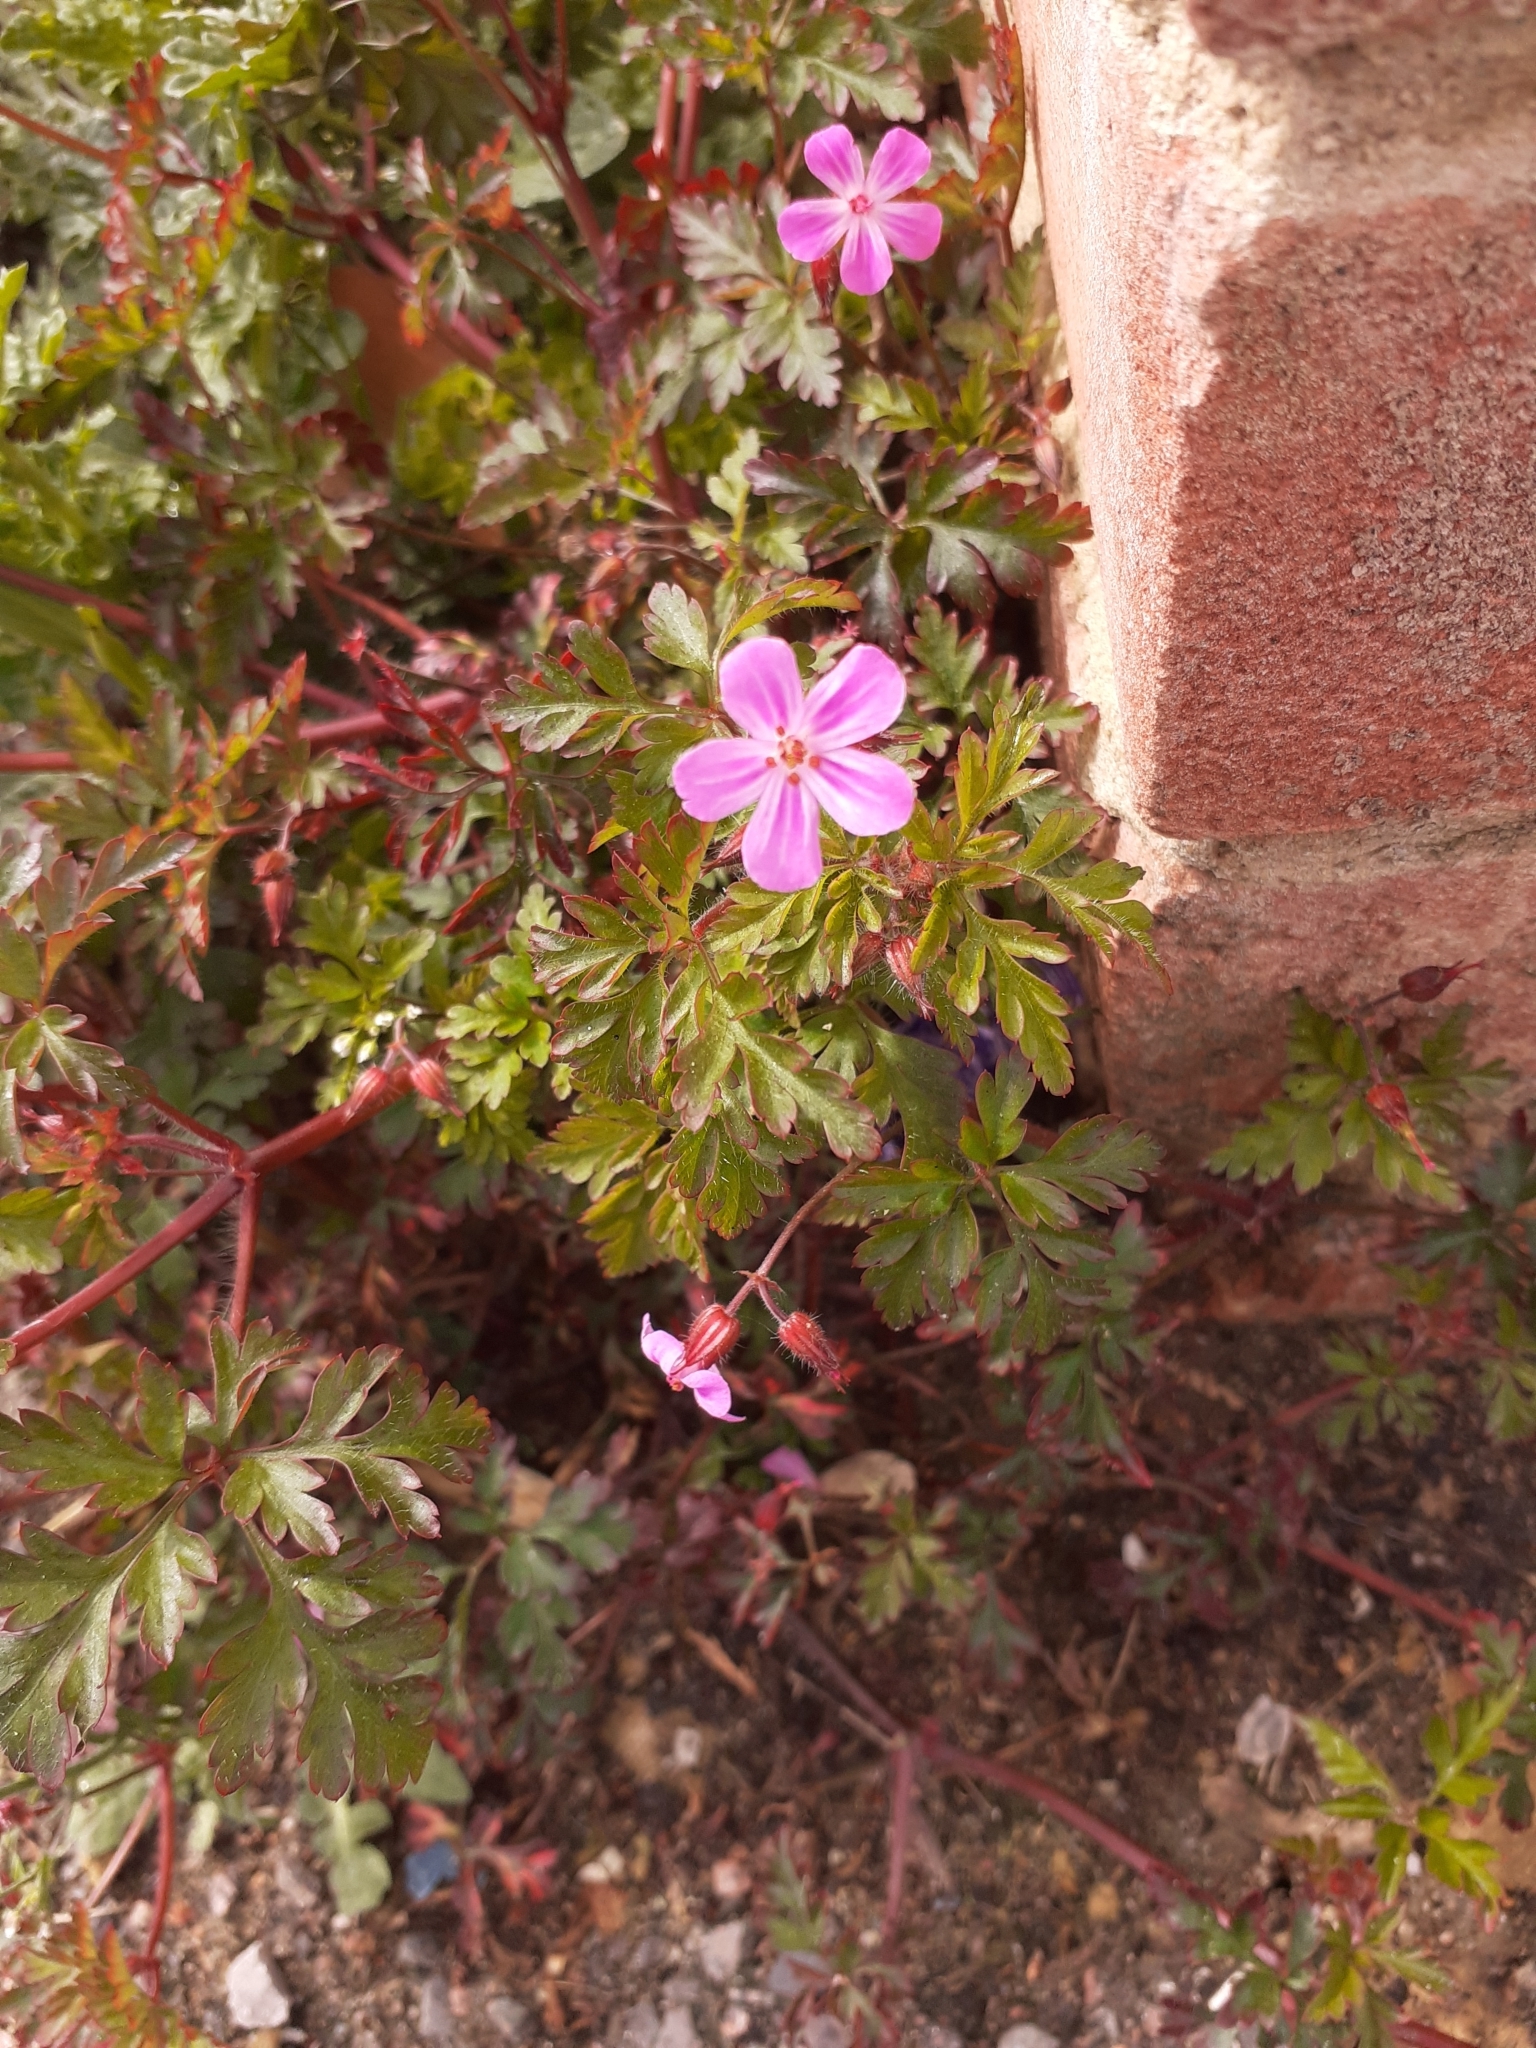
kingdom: Plantae
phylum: Tracheophyta
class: Magnoliopsida
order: Geraniales
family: Geraniaceae
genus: Geranium
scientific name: Geranium robertianum
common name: Herb-robert
